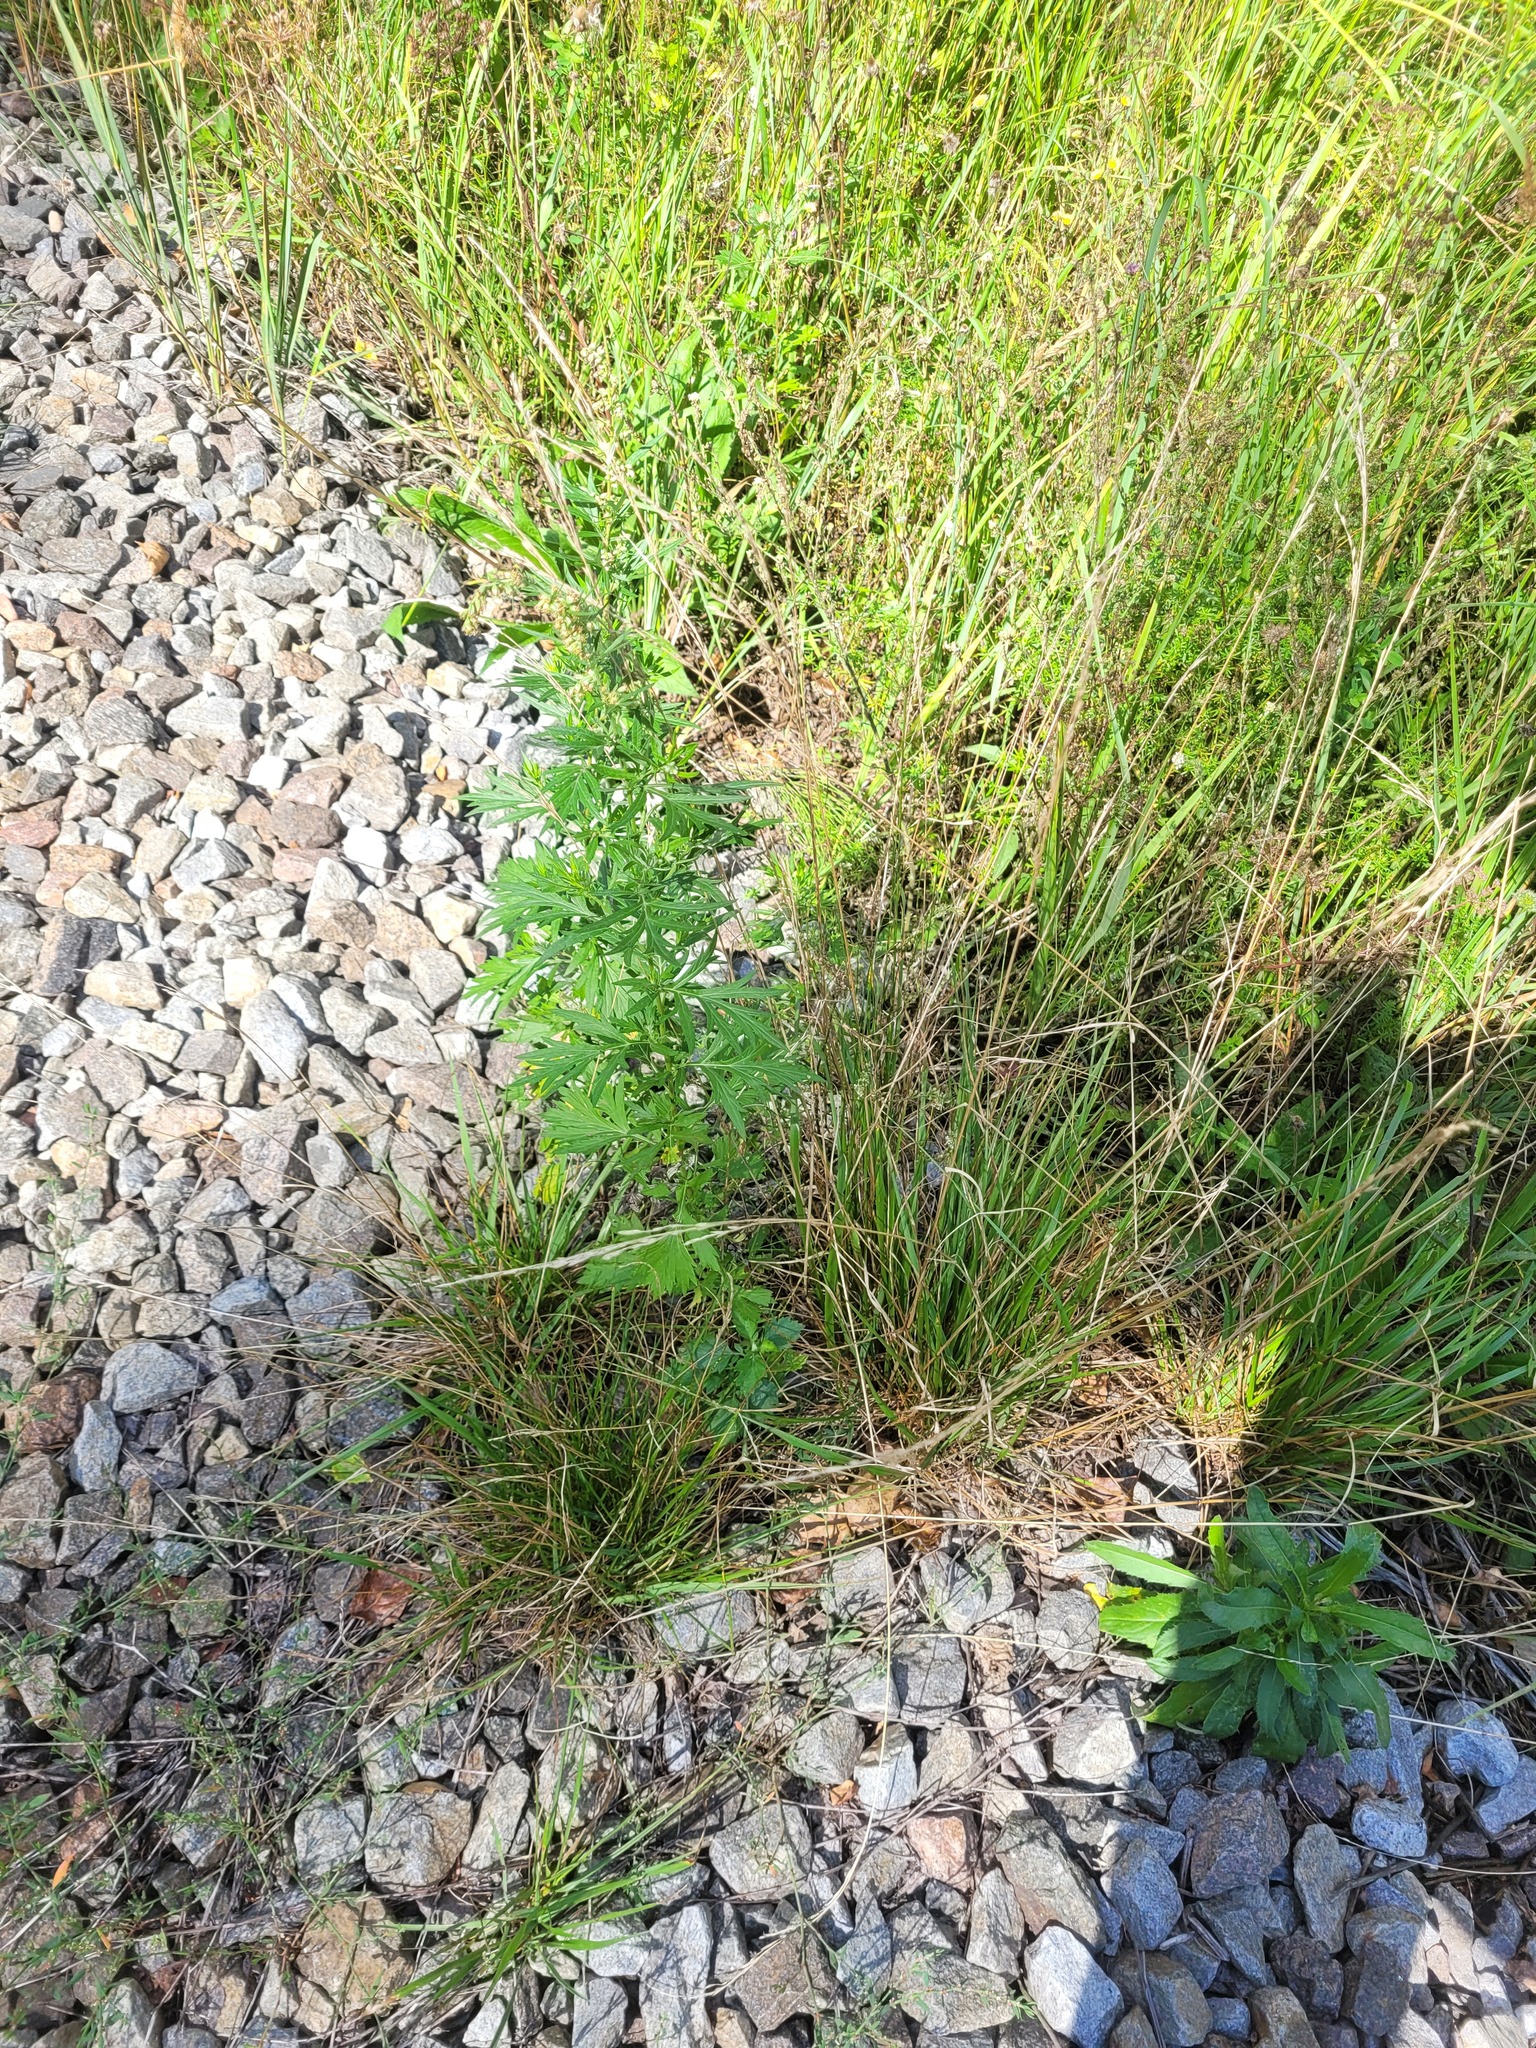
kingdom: Plantae
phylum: Tracheophyta
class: Liliopsida
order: Poales
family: Poaceae
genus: Lolium
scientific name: Lolium pratense
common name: Dover grass
